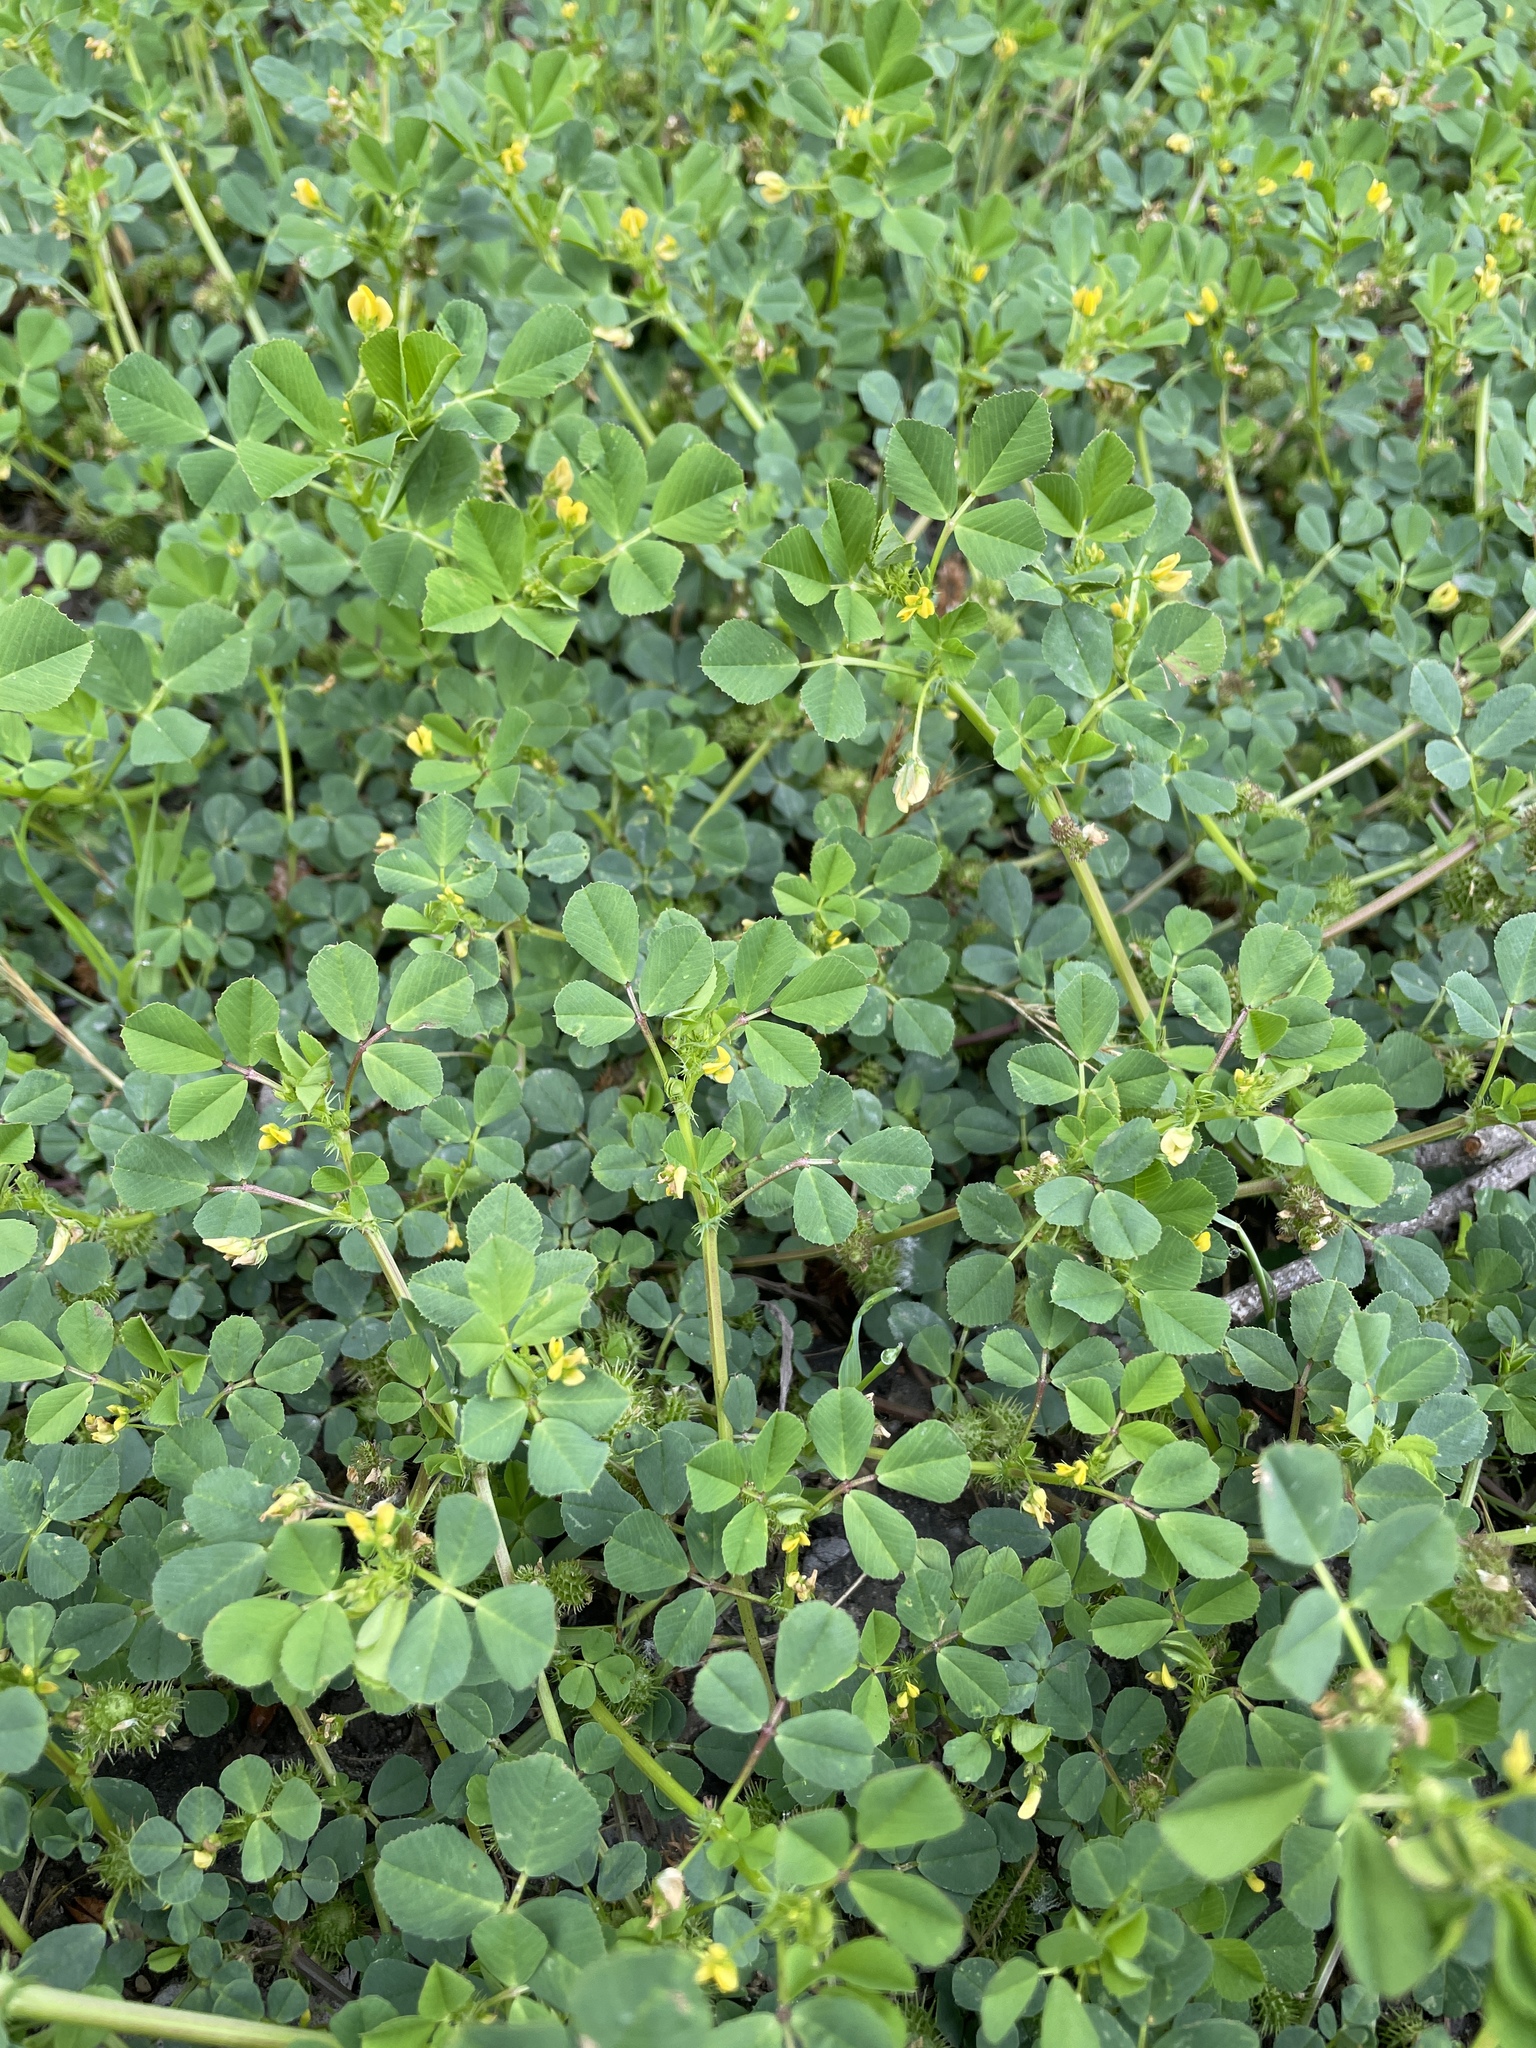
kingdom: Plantae
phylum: Tracheophyta
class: Magnoliopsida
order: Fabales
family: Fabaceae
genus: Medicago
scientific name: Medicago polymorpha
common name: Burclover
